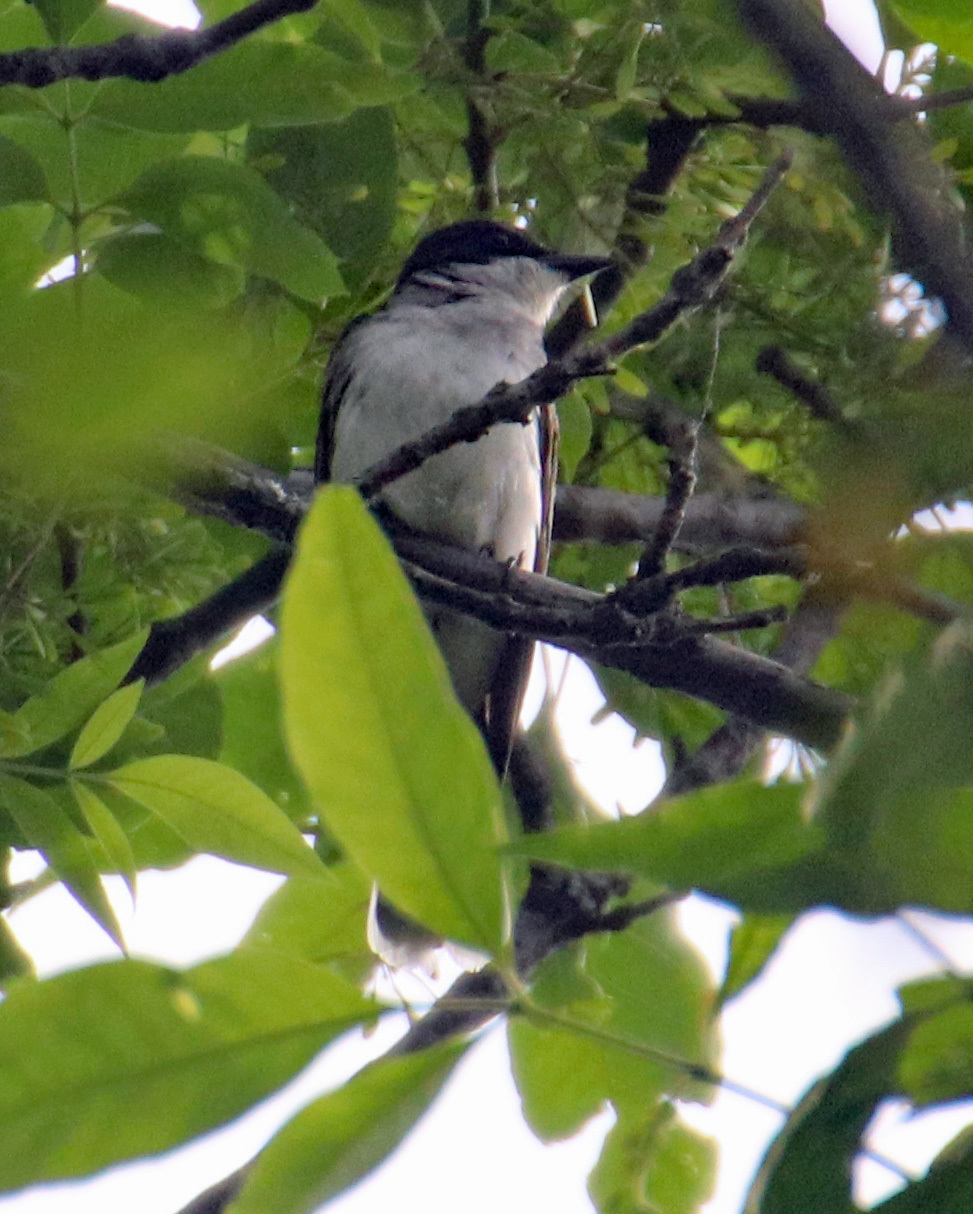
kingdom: Animalia
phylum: Chordata
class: Aves
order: Passeriformes
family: Tyrannidae
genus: Tyrannus
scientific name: Tyrannus tyrannus
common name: Eastern kingbird
